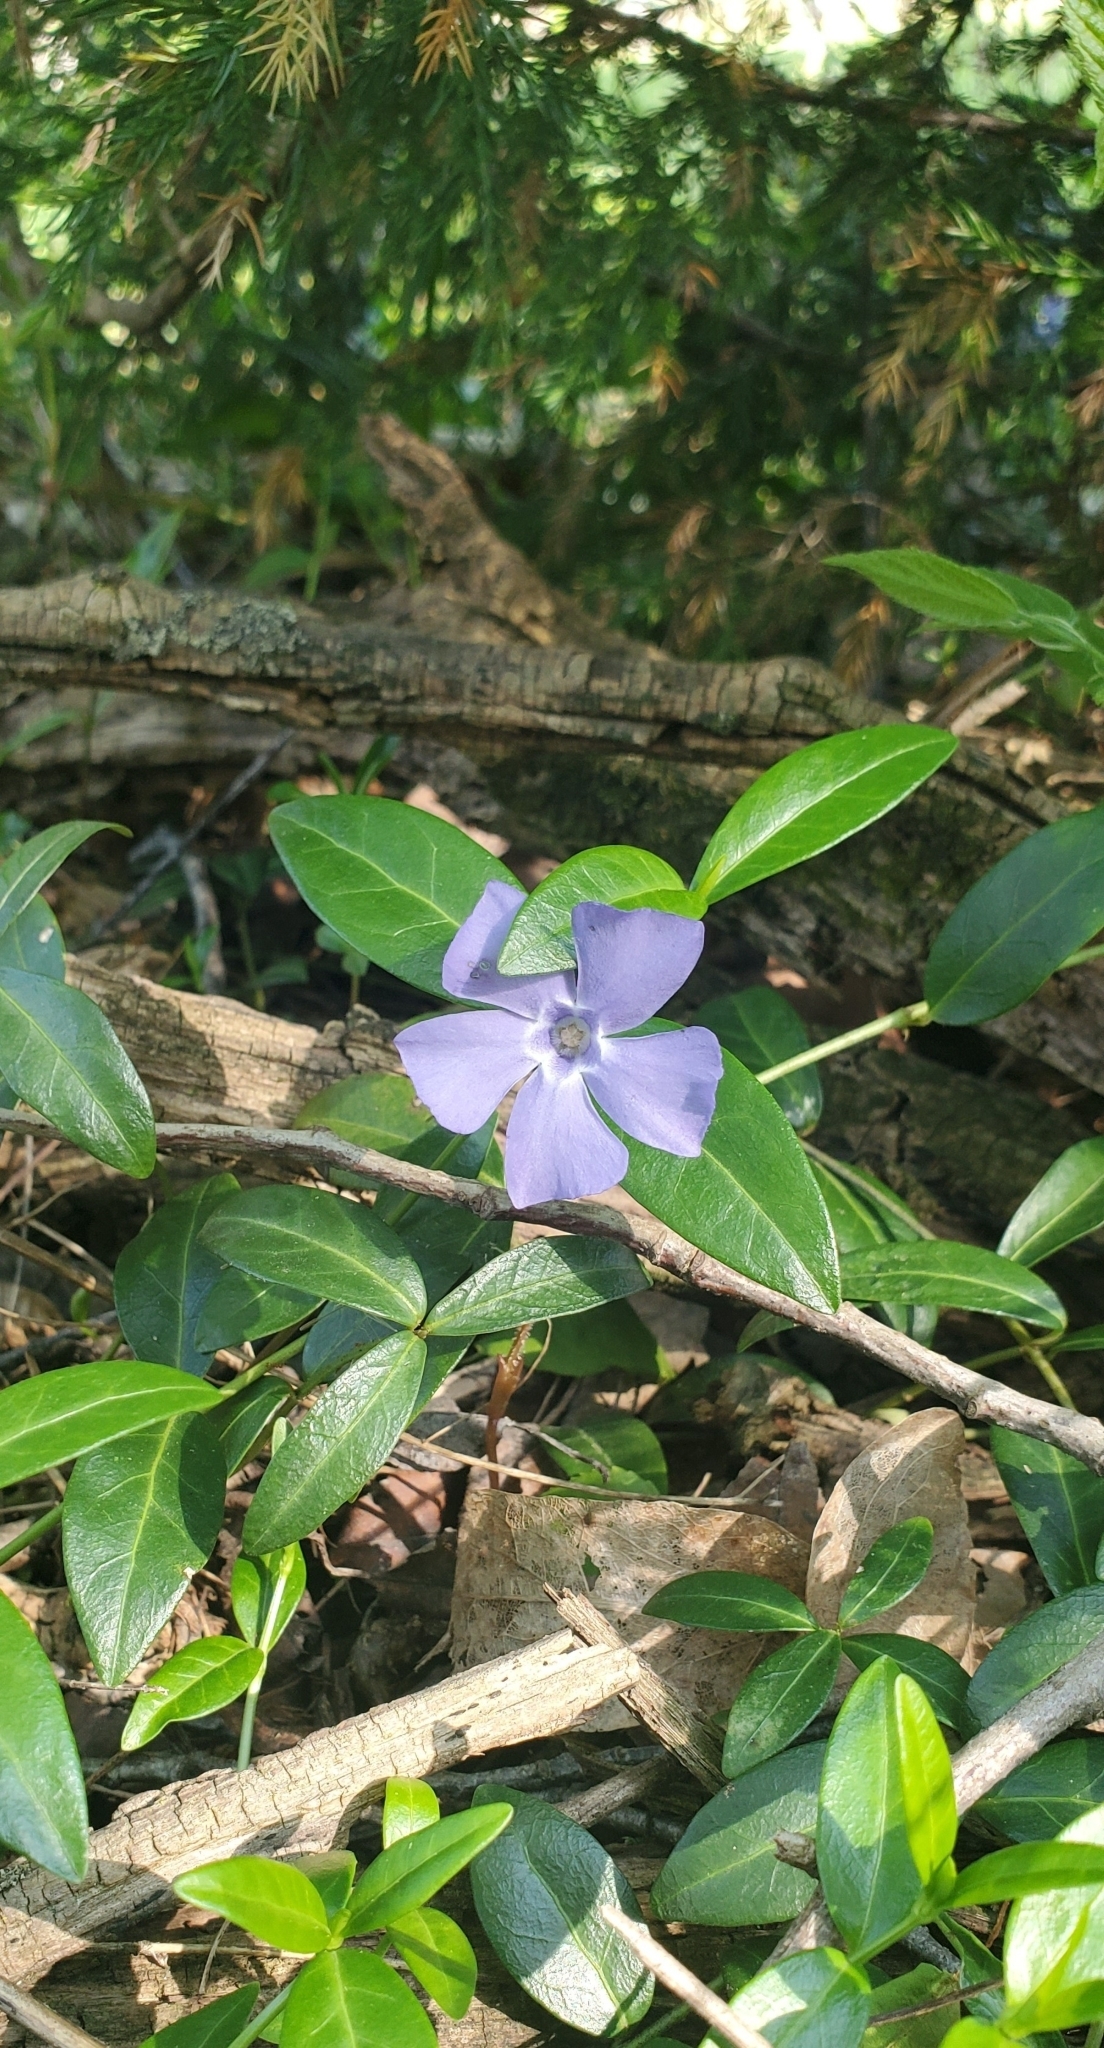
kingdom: Plantae
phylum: Tracheophyta
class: Magnoliopsida
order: Gentianales
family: Apocynaceae
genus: Vinca
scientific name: Vinca minor
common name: Lesser periwinkle
